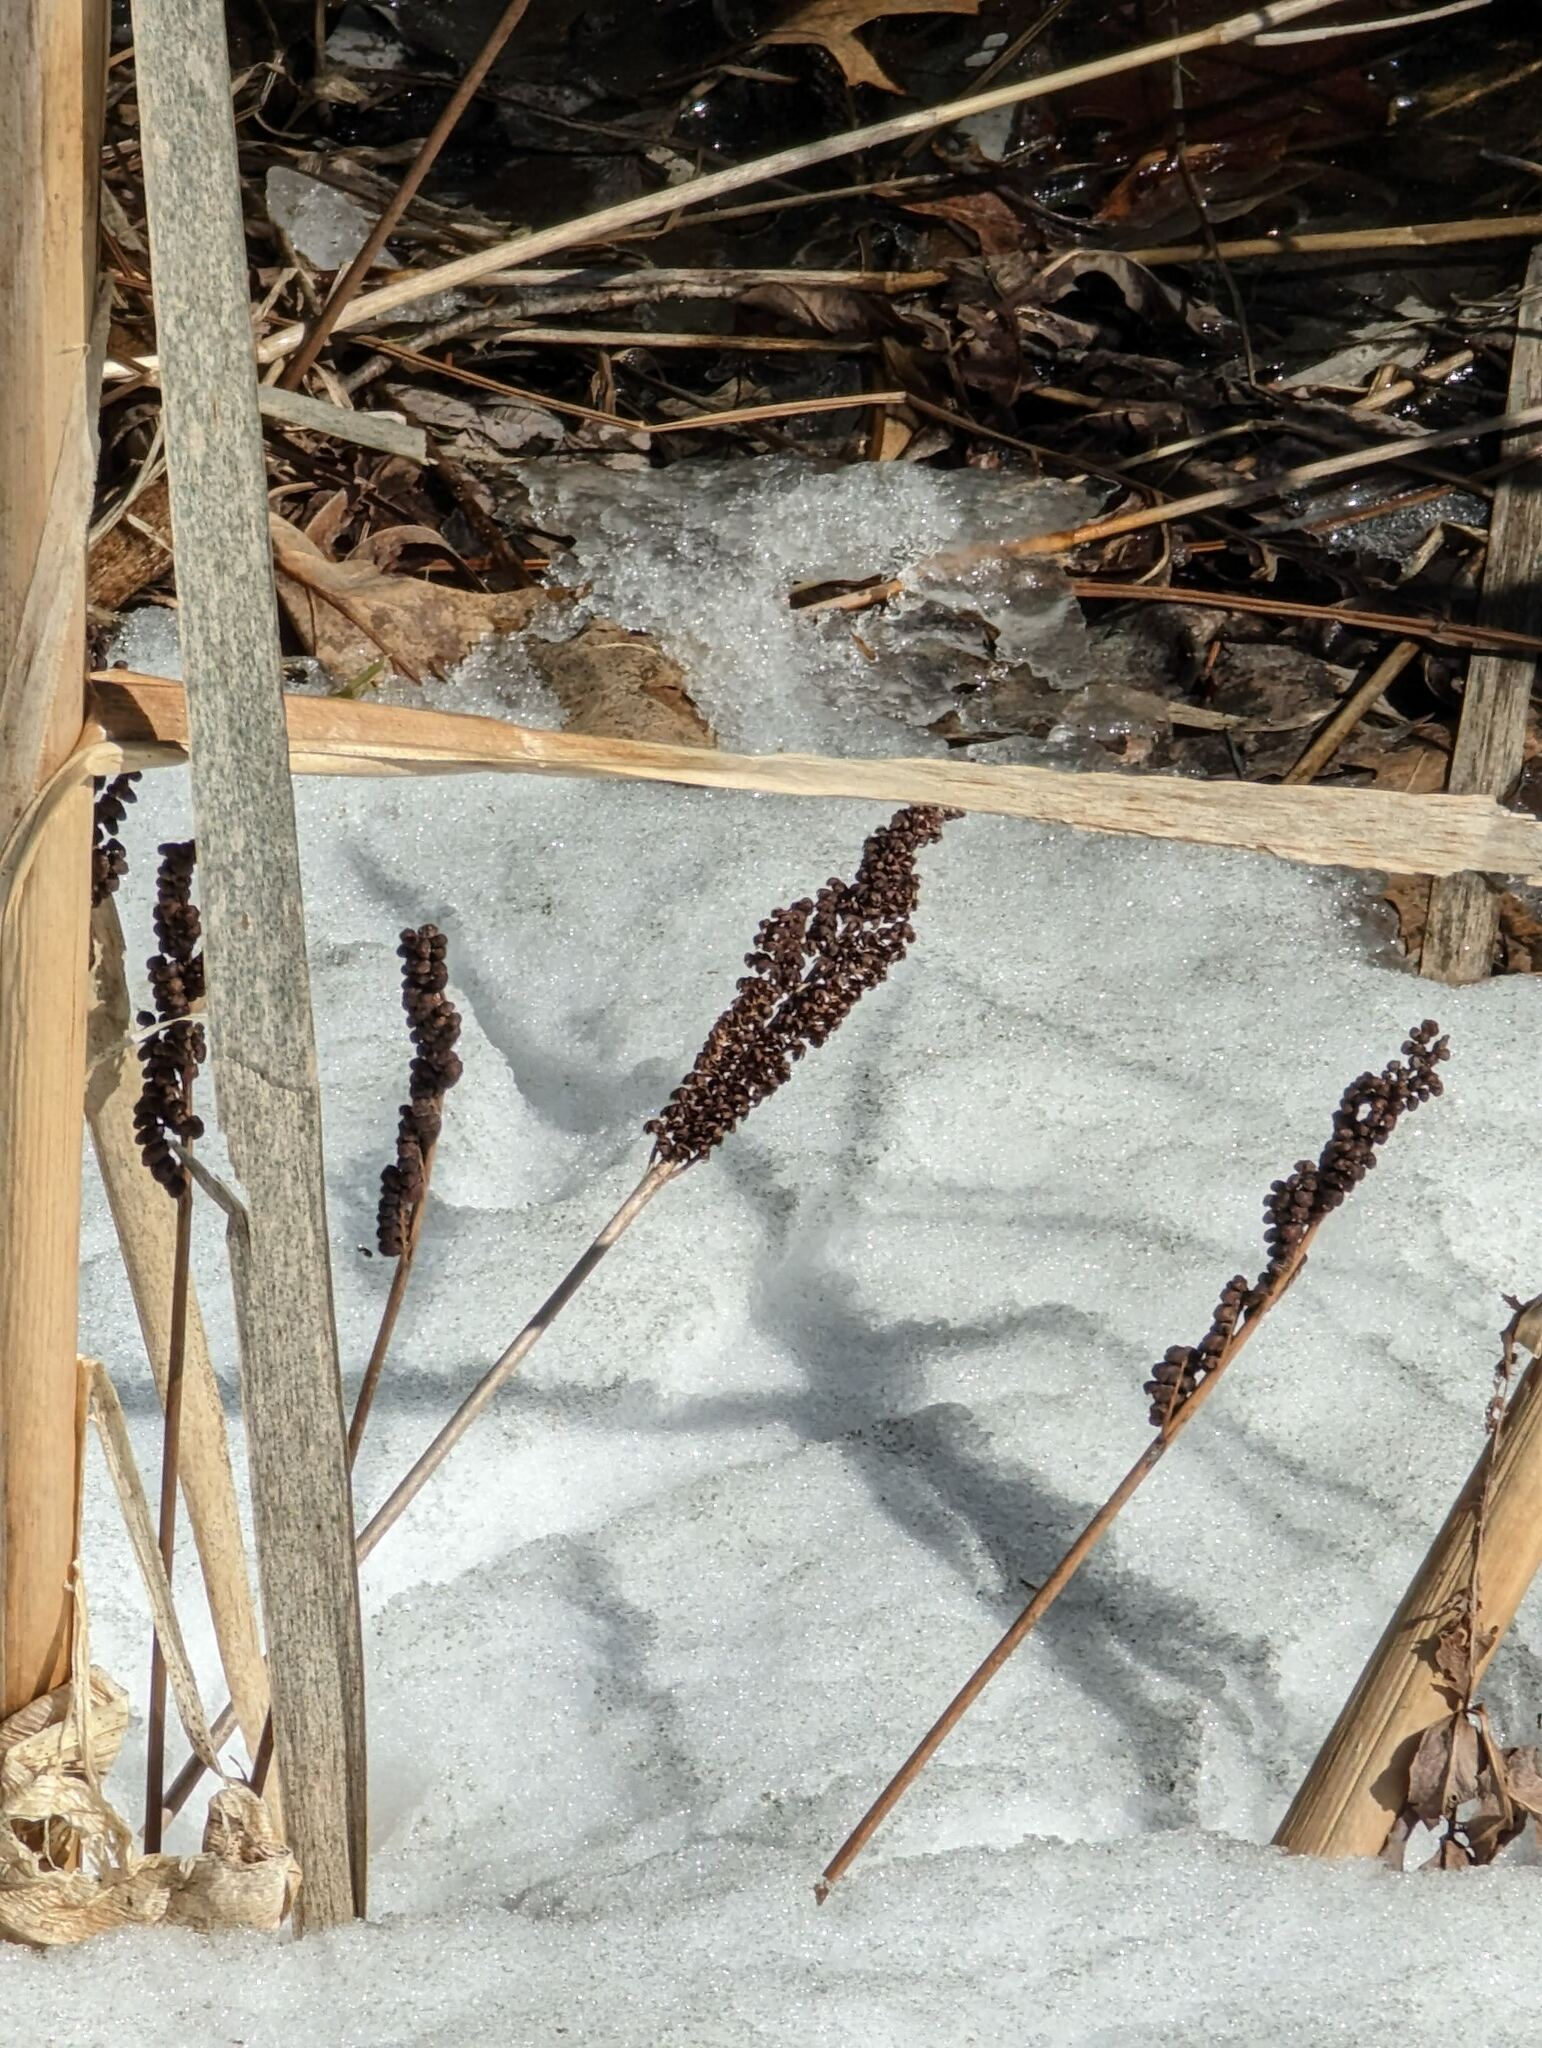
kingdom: Plantae
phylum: Tracheophyta
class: Polypodiopsida
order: Polypodiales
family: Onocleaceae
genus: Onoclea
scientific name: Onoclea sensibilis
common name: Sensitive fern
